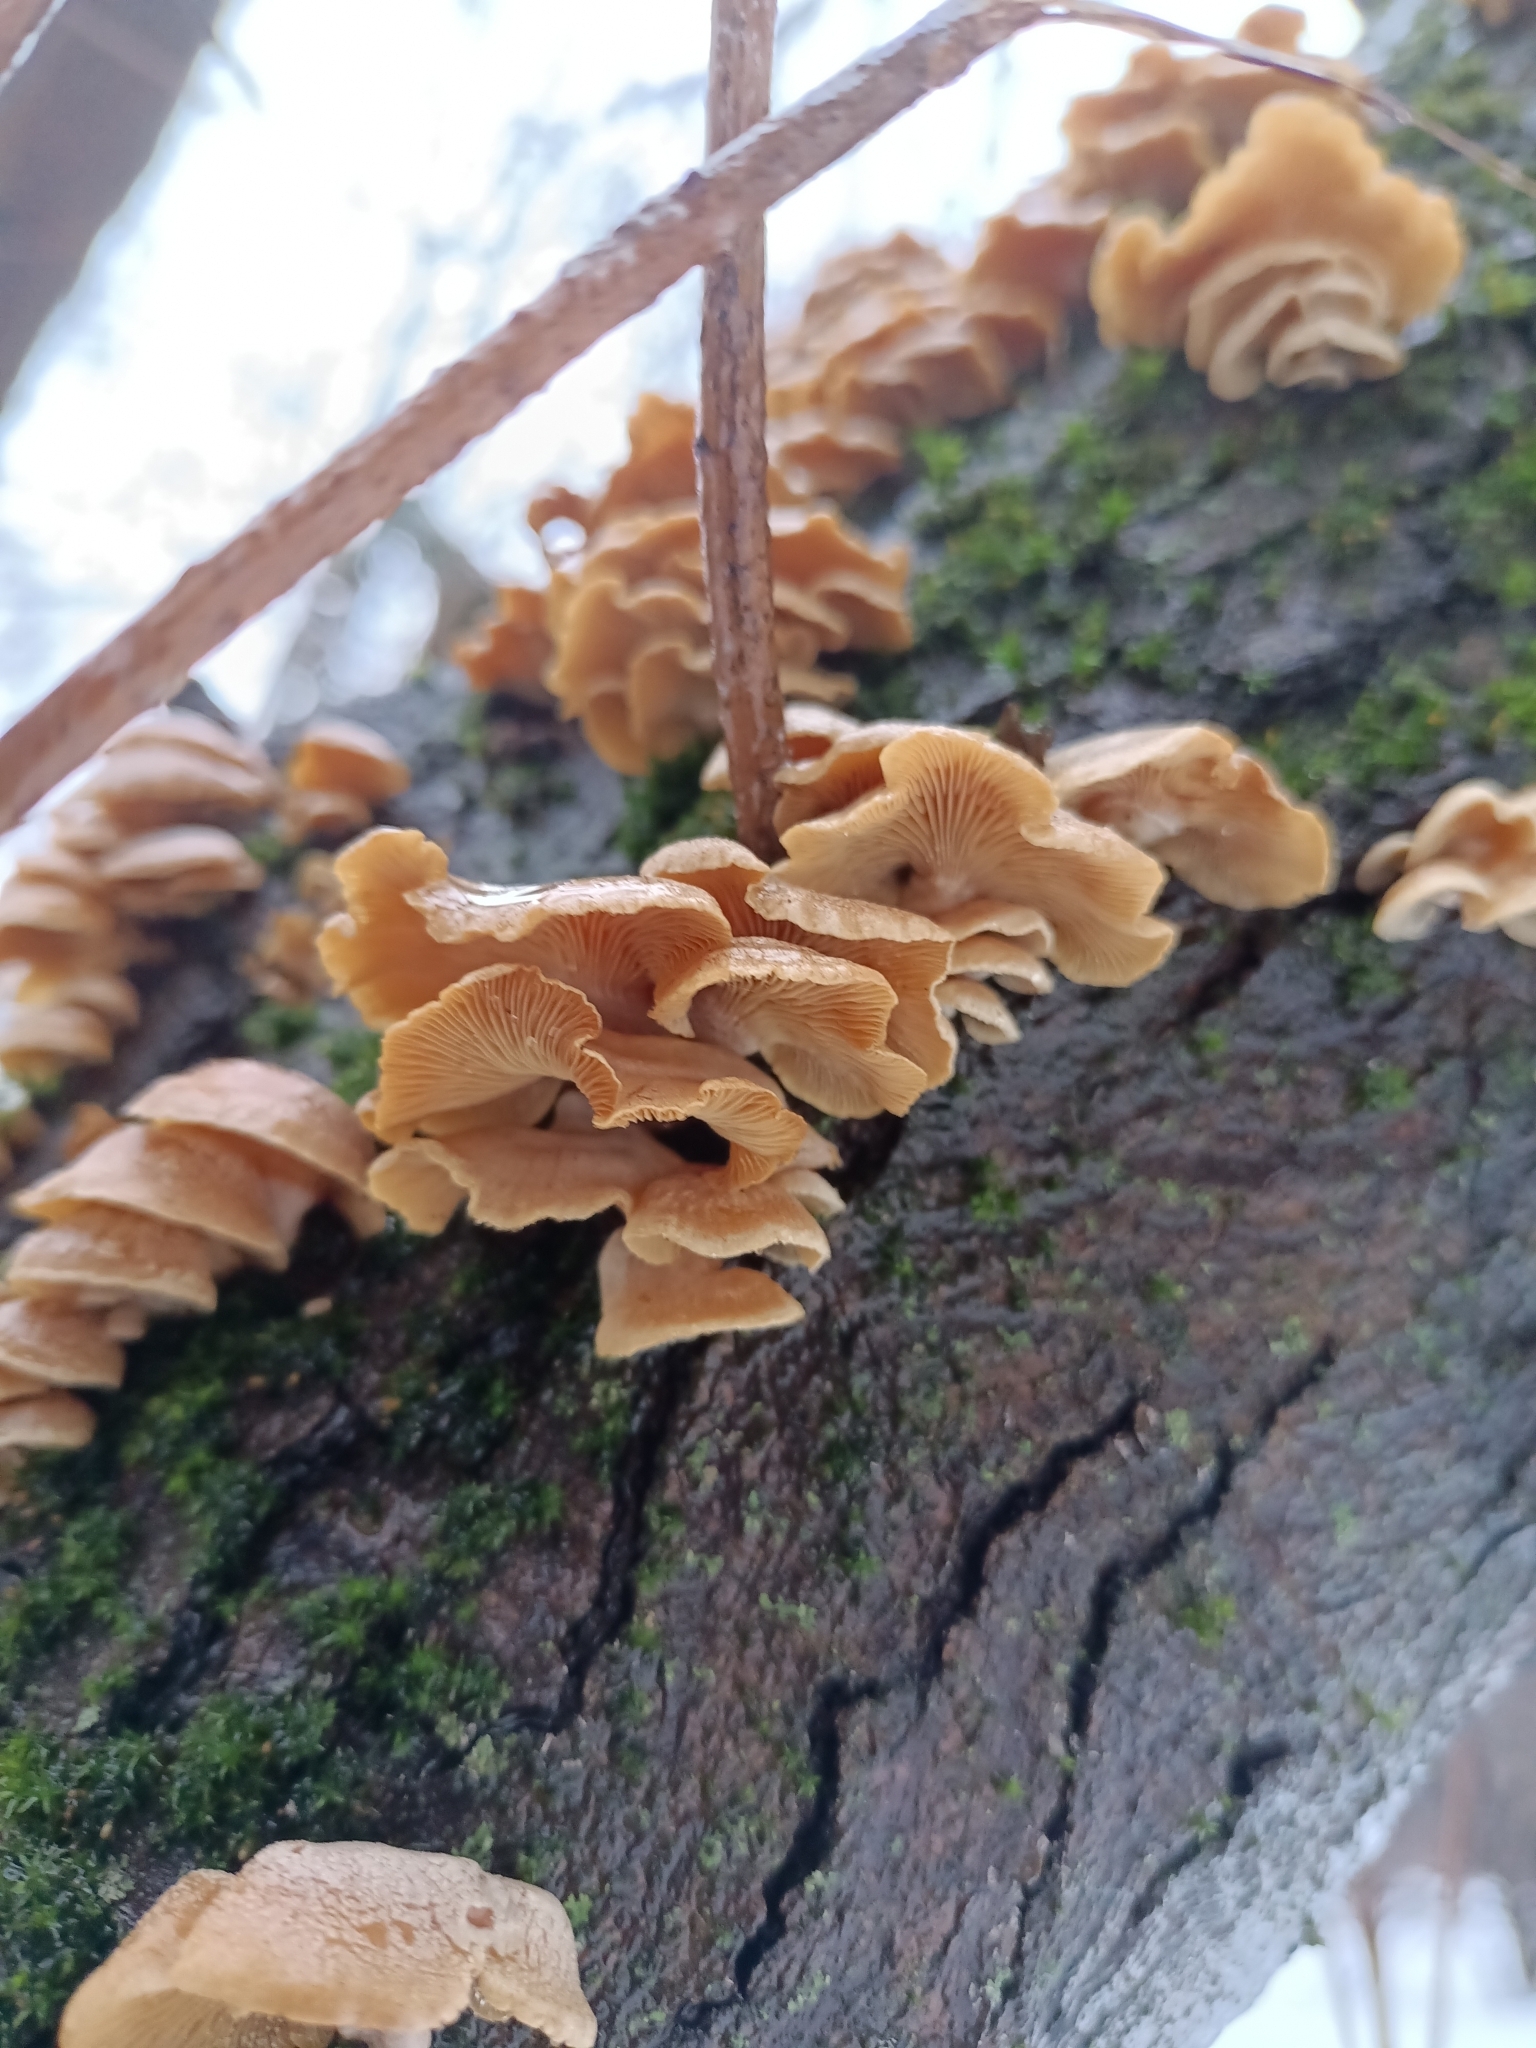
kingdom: Fungi
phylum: Basidiomycota
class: Agaricomycetes
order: Agaricales
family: Mycenaceae
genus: Panellus
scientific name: Panellus stipticus
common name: Bitter oysterling
